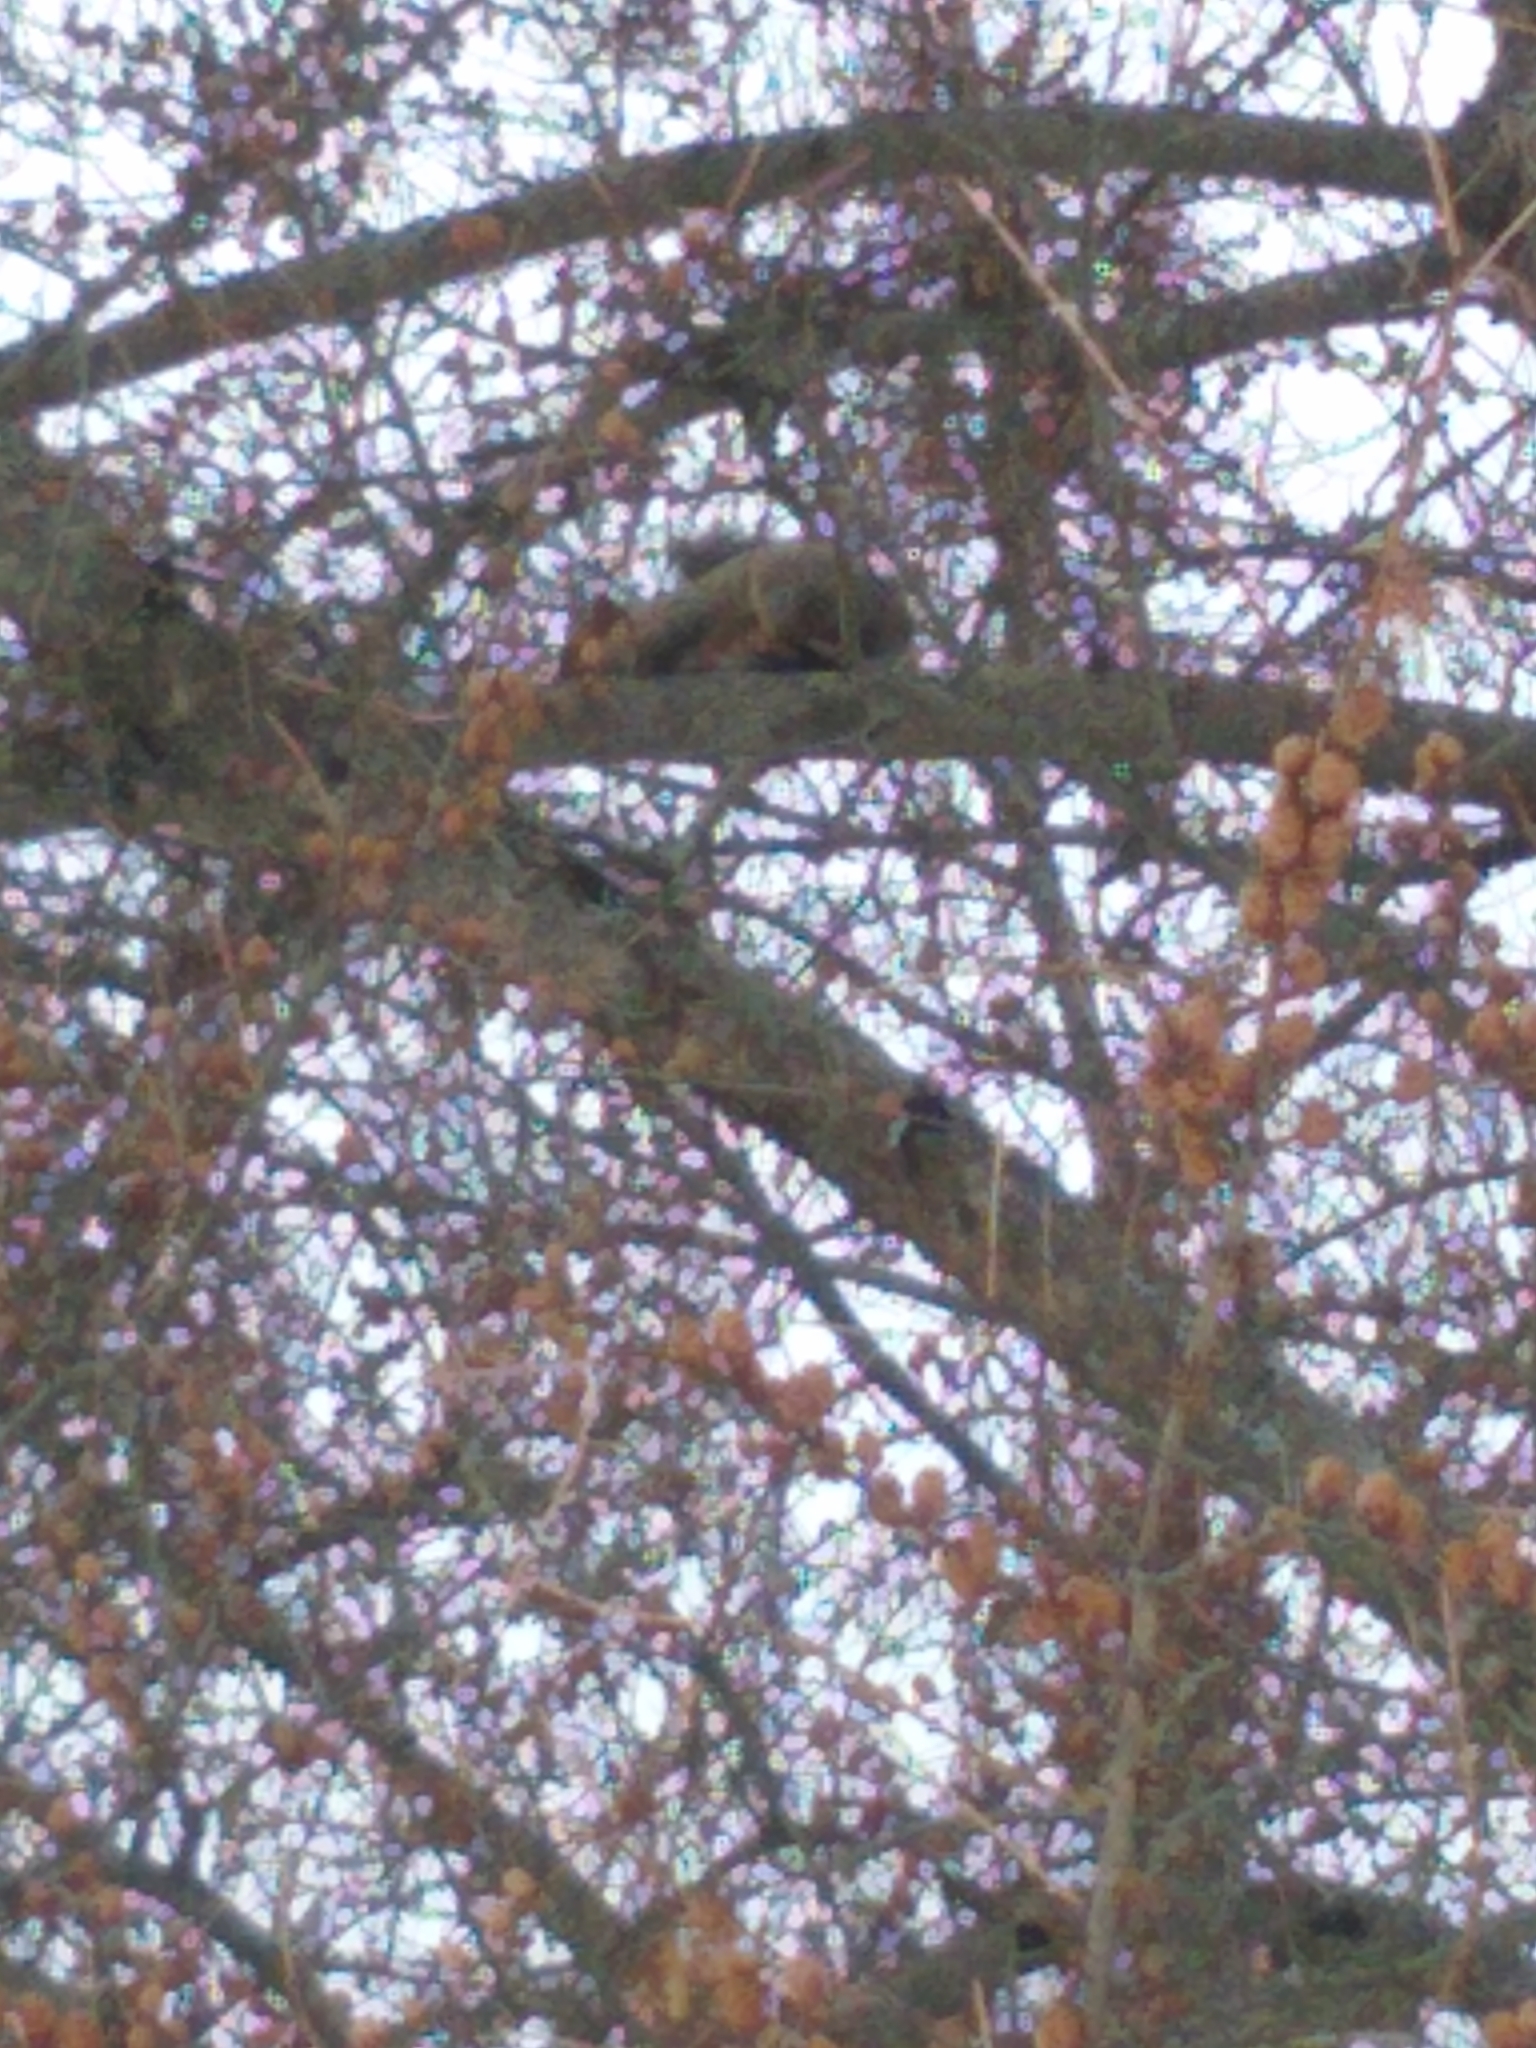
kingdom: Animalia
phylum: Chordata
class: Mammalia
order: Rodentia
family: Sciuridae
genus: Sciurus
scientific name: Sciurus carolinensis
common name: Eastern gray squirrel
